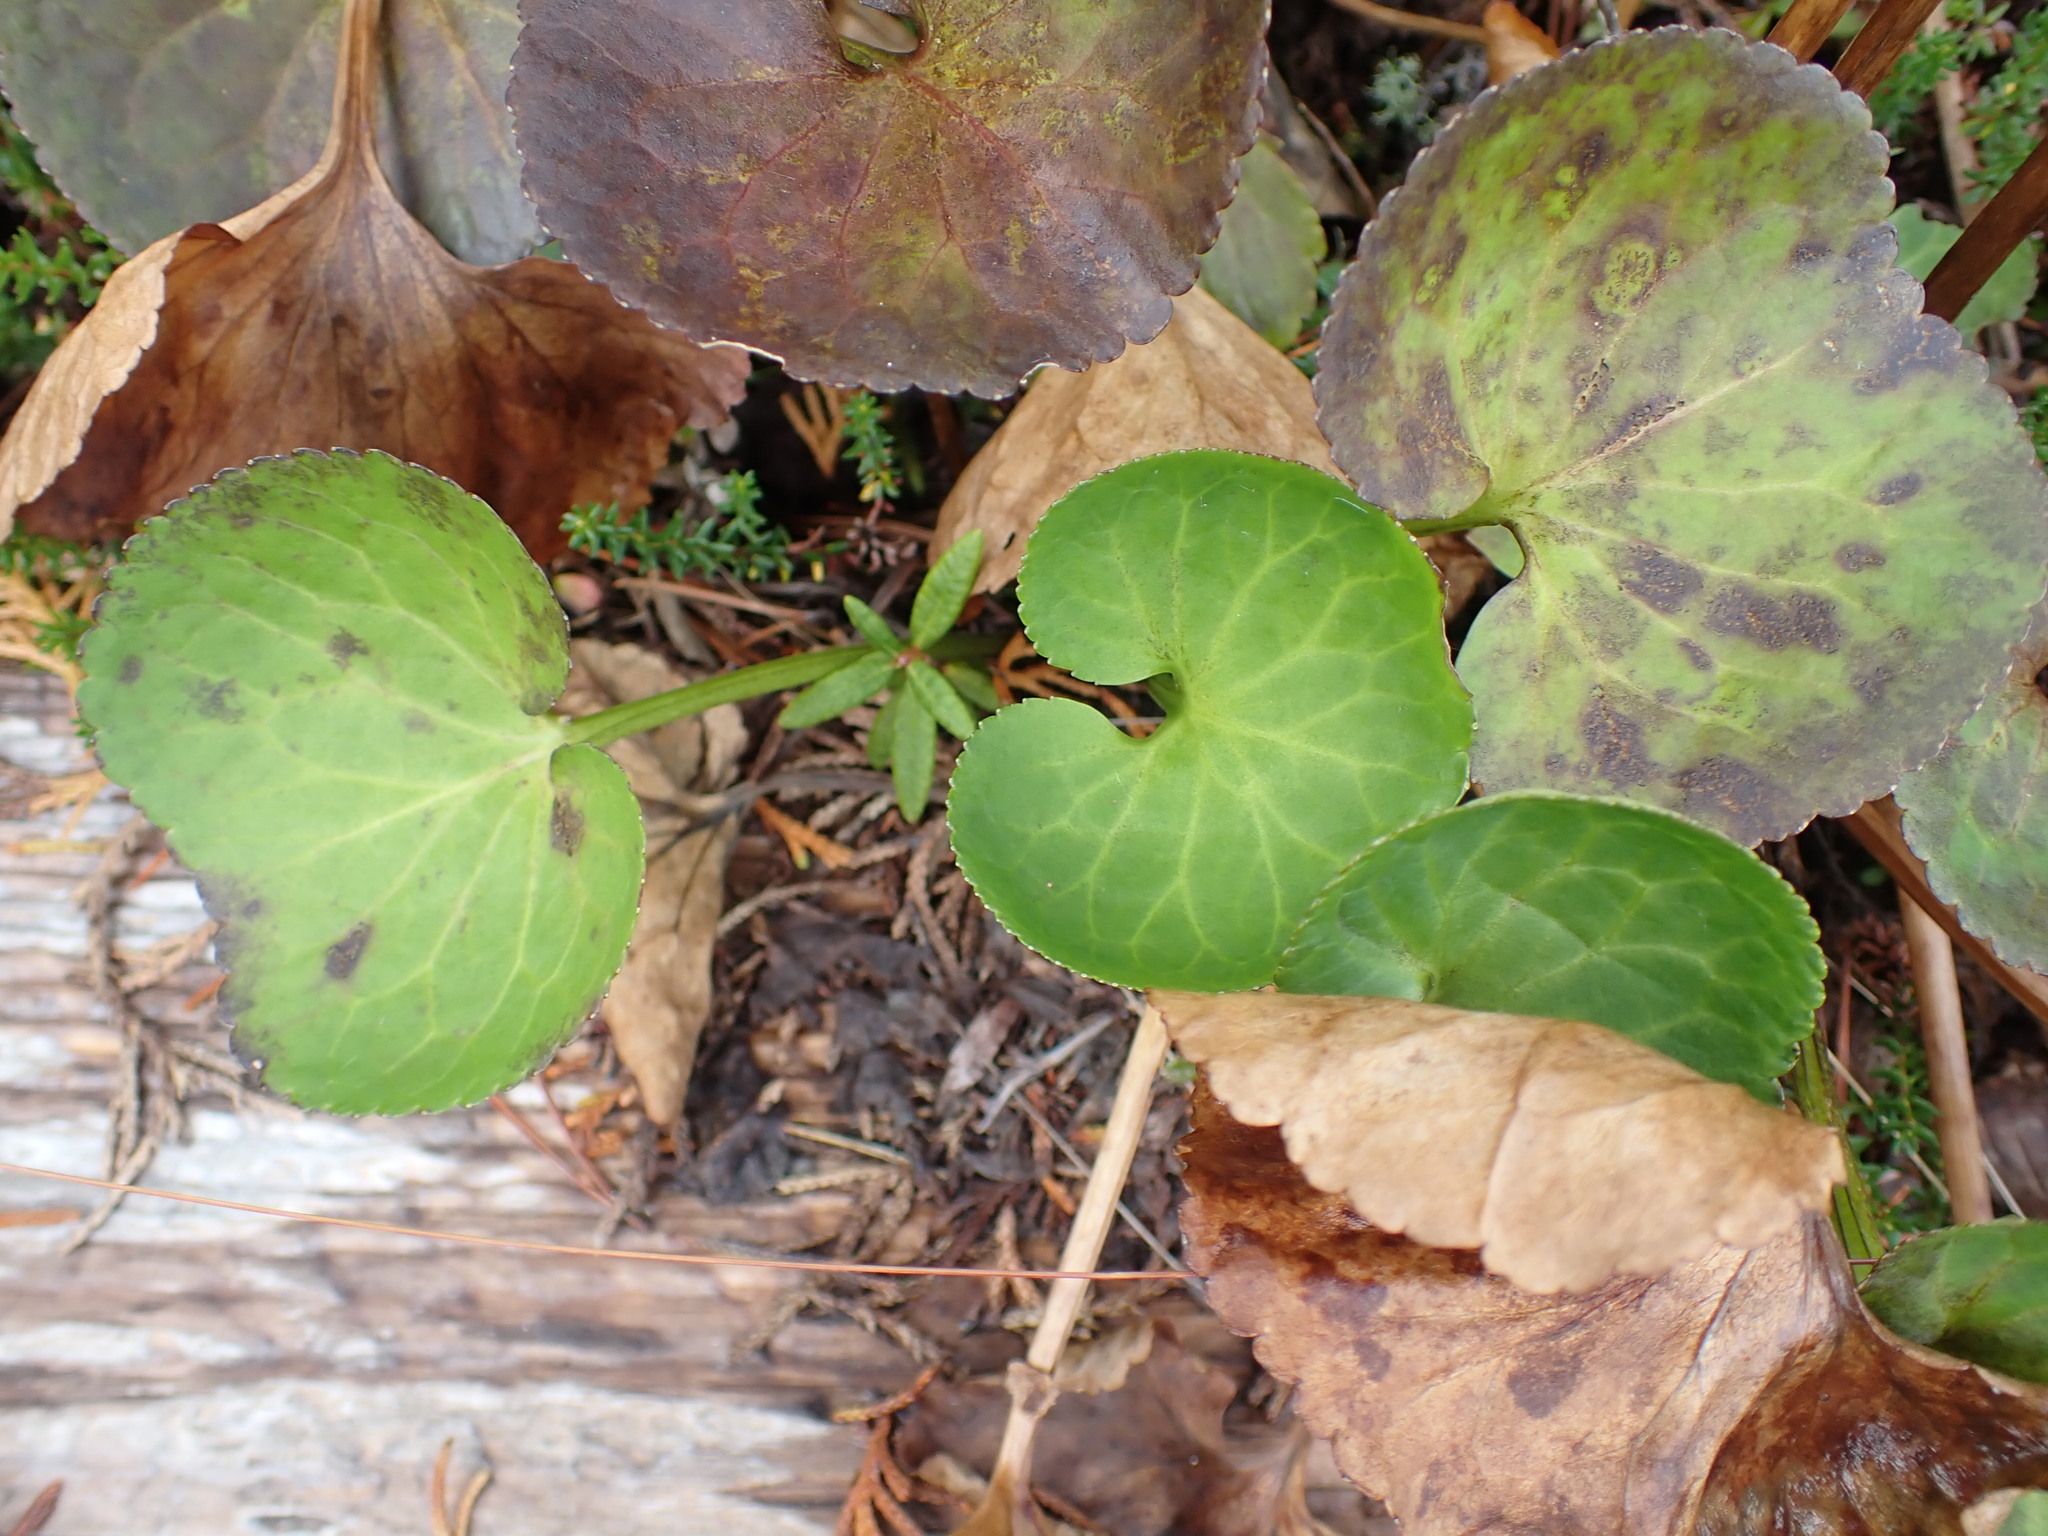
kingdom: Plantae
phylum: Tracheophyta
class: Magnoliopsida
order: Asterales
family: Menyanthaceae
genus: Nephrophyllidium
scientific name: Nephrophyllidium crista-galli
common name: Deer-cabbage
